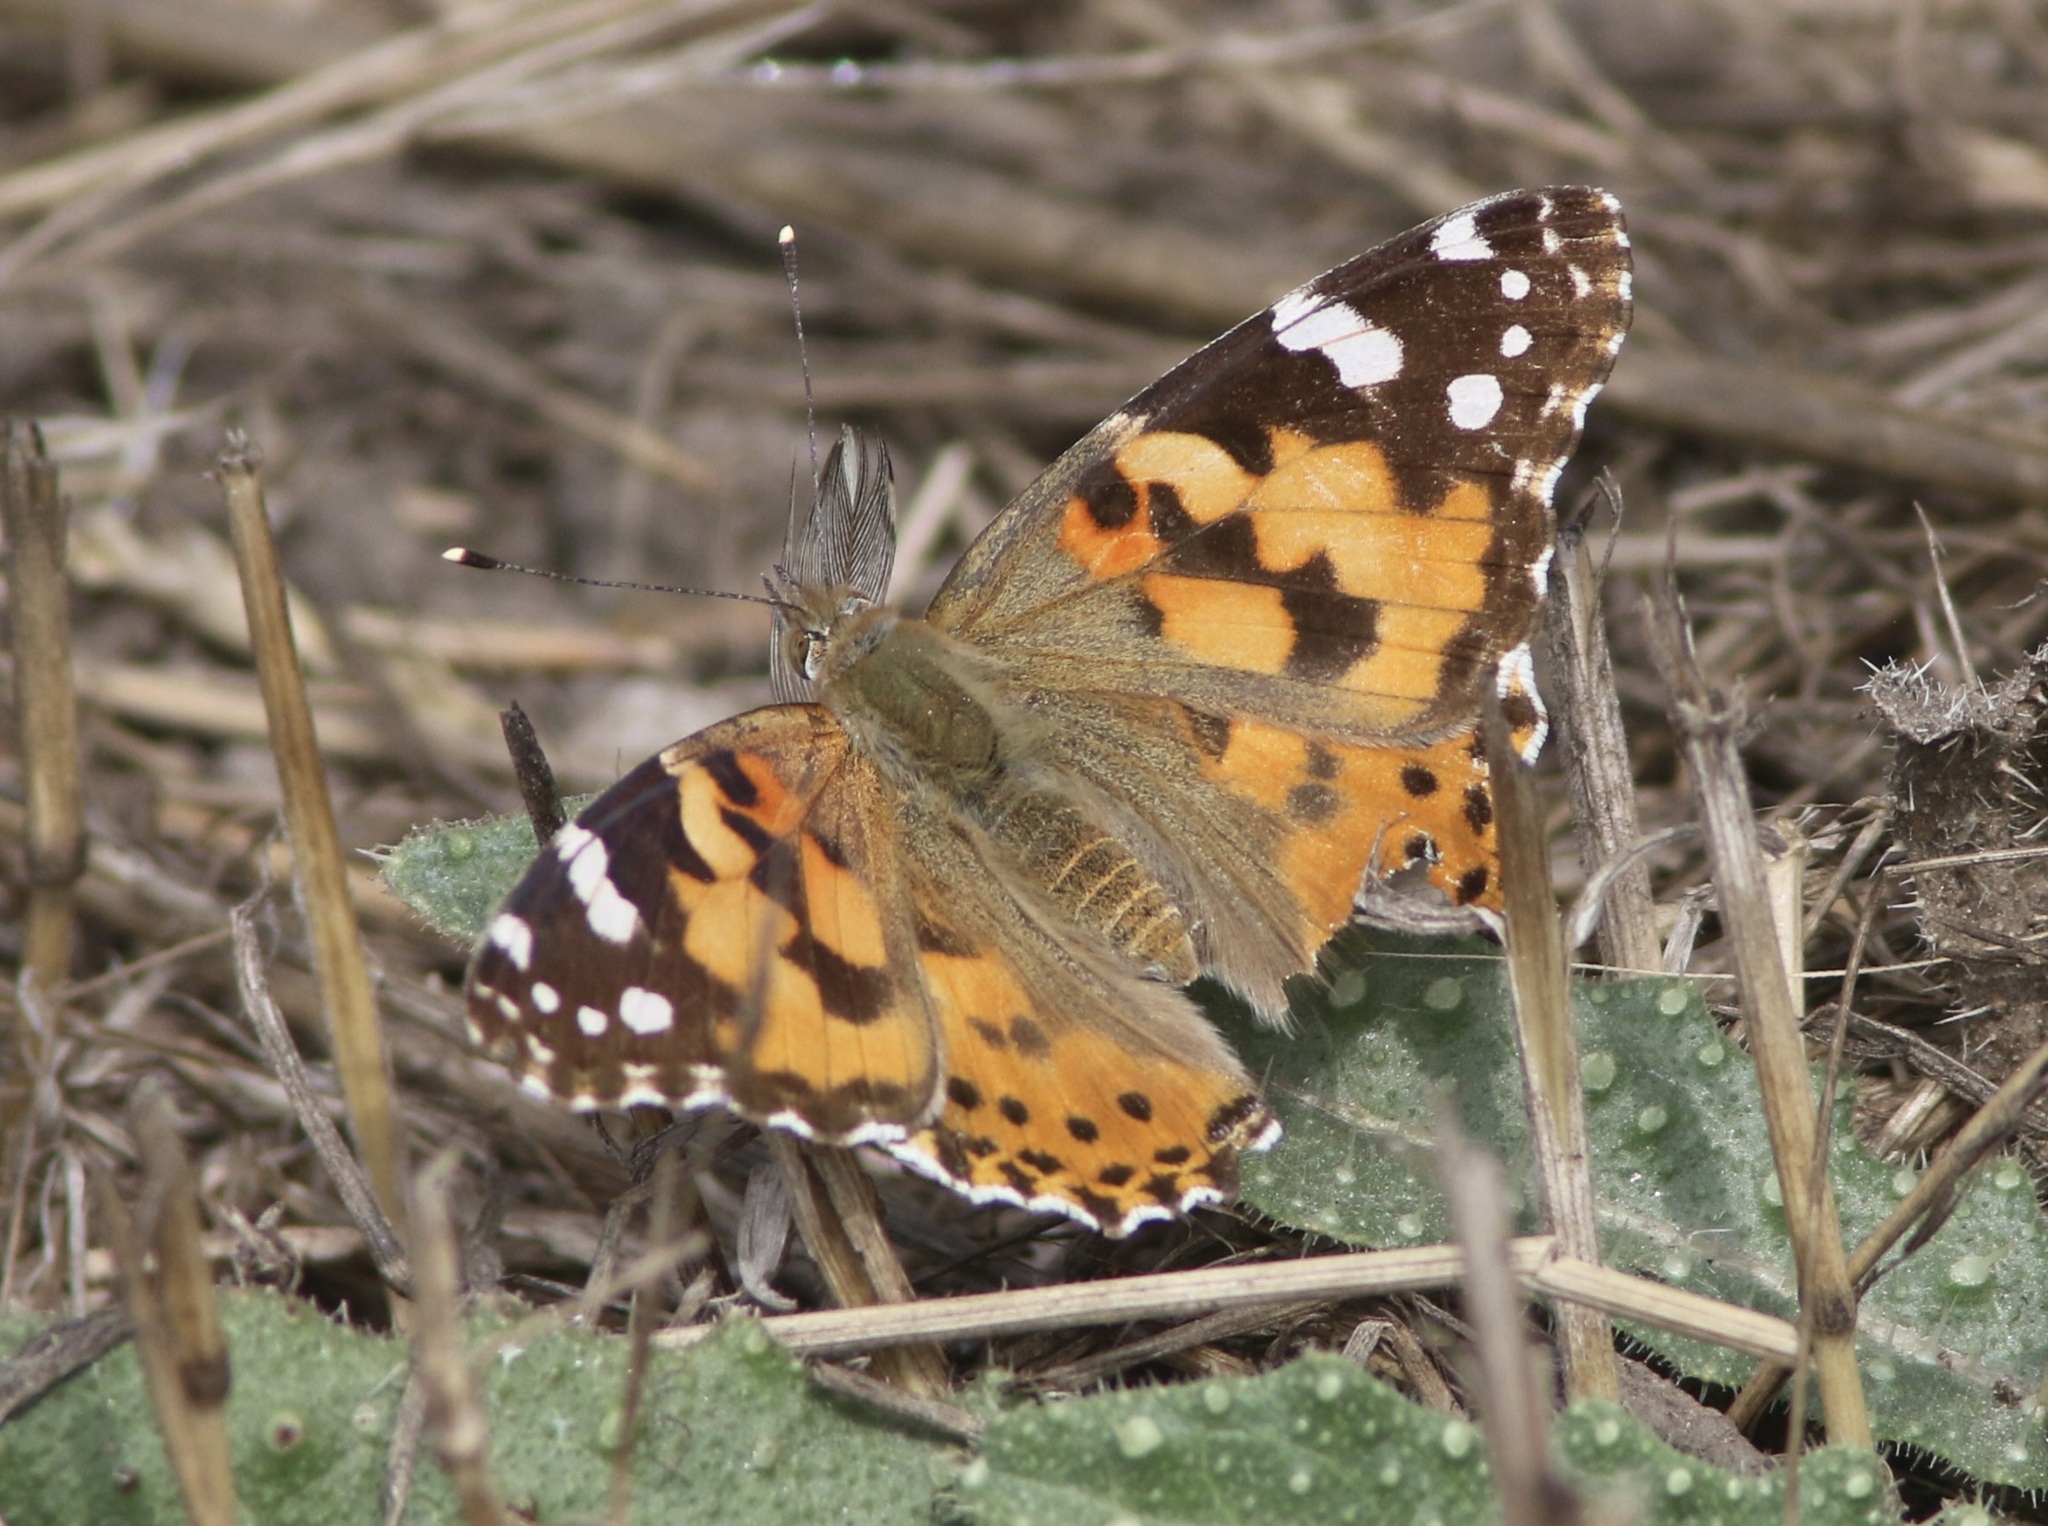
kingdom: Animalia
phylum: Arthropoda
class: Insecta
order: Lepidoptera
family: Nymphalidae
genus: Vanessa
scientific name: Vanessa cardui
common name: Painted lady
